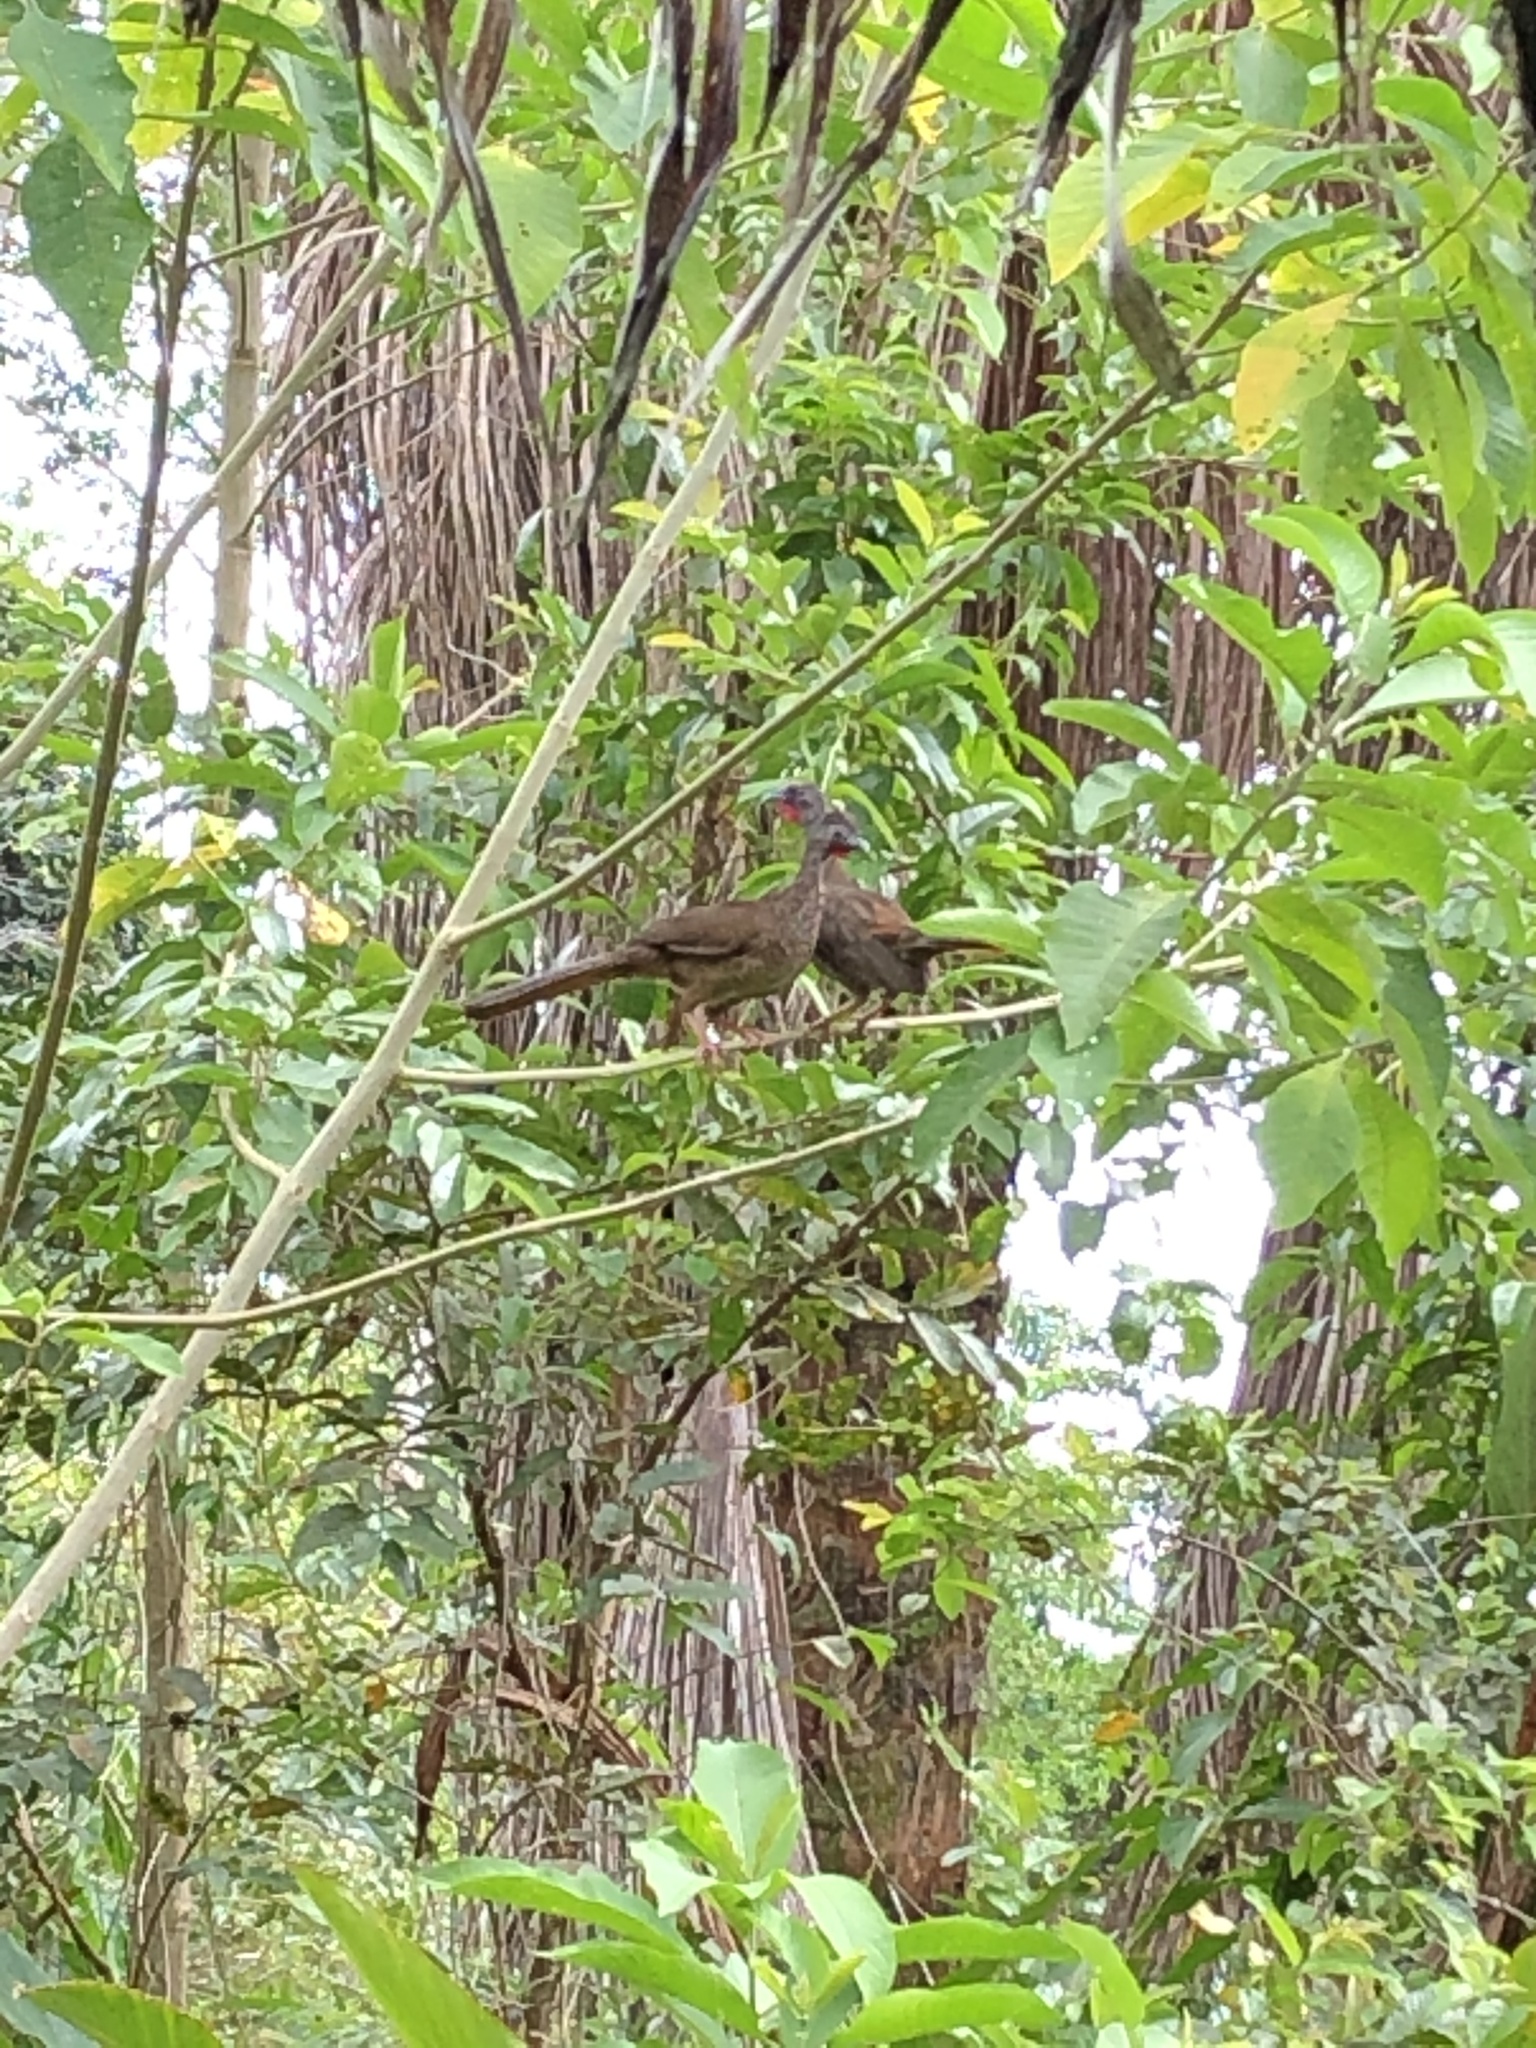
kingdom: Animalia
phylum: Chordata
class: Aves
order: Galliformes
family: Cracidae
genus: Ortalis
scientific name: Ortalis guttata
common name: Speckled chachalaca
